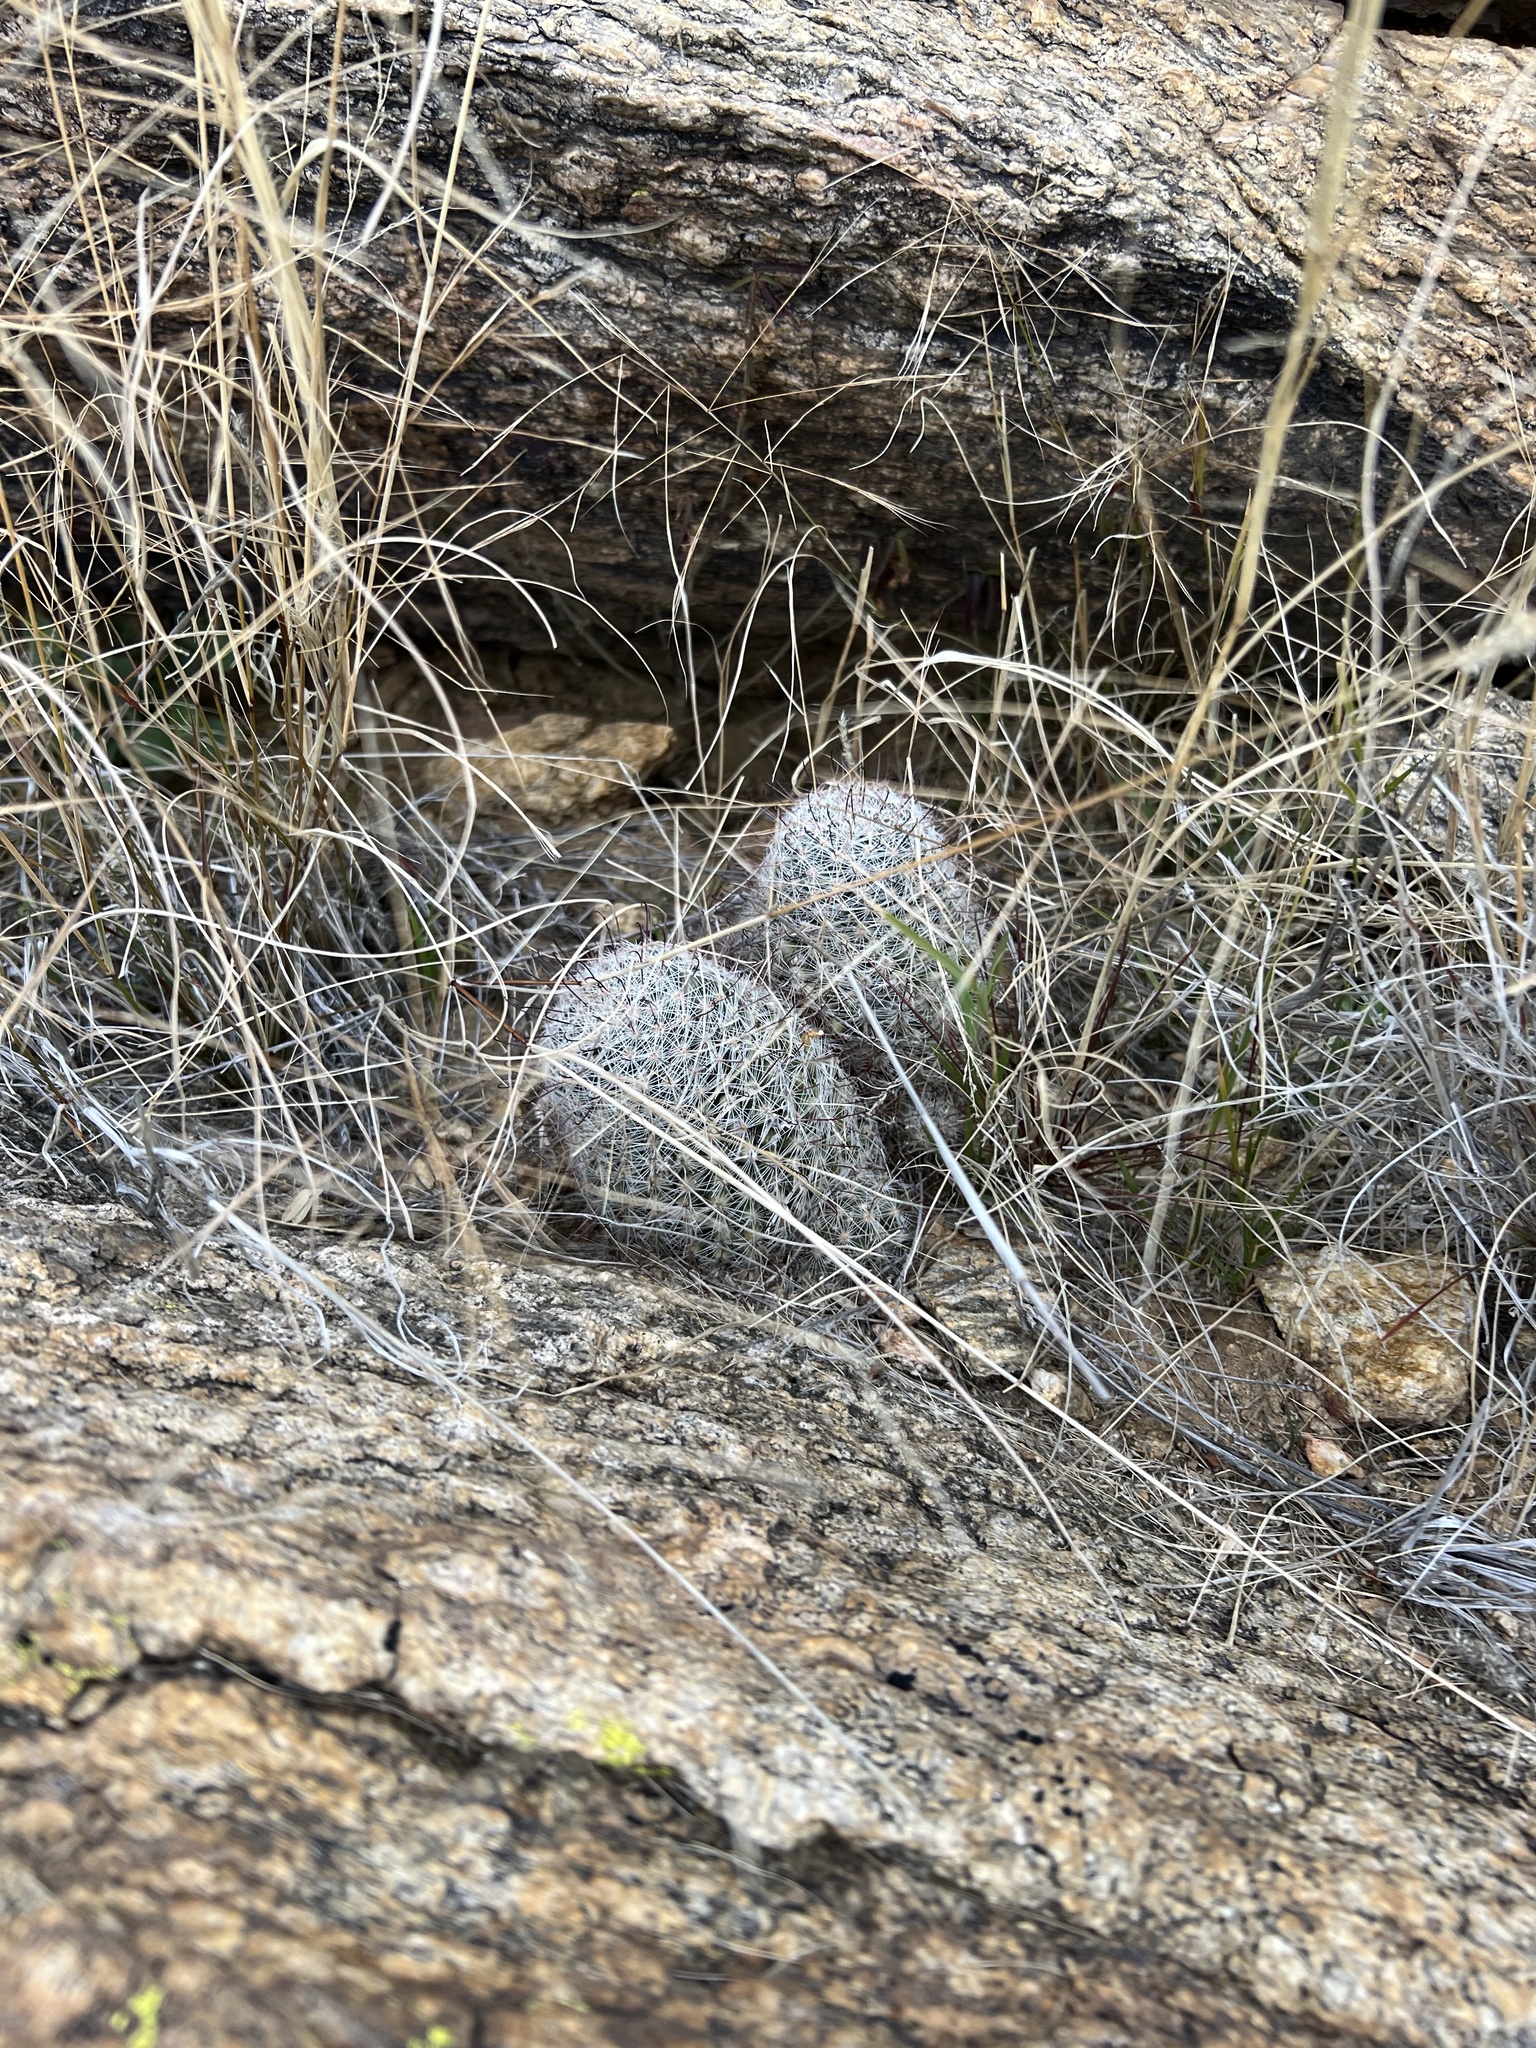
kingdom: Plantae
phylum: Tracheophyta
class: Magnoliopsida
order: Caryophyllales
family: Cactaceae
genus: Cochemiea
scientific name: Cochemiea grahamii
